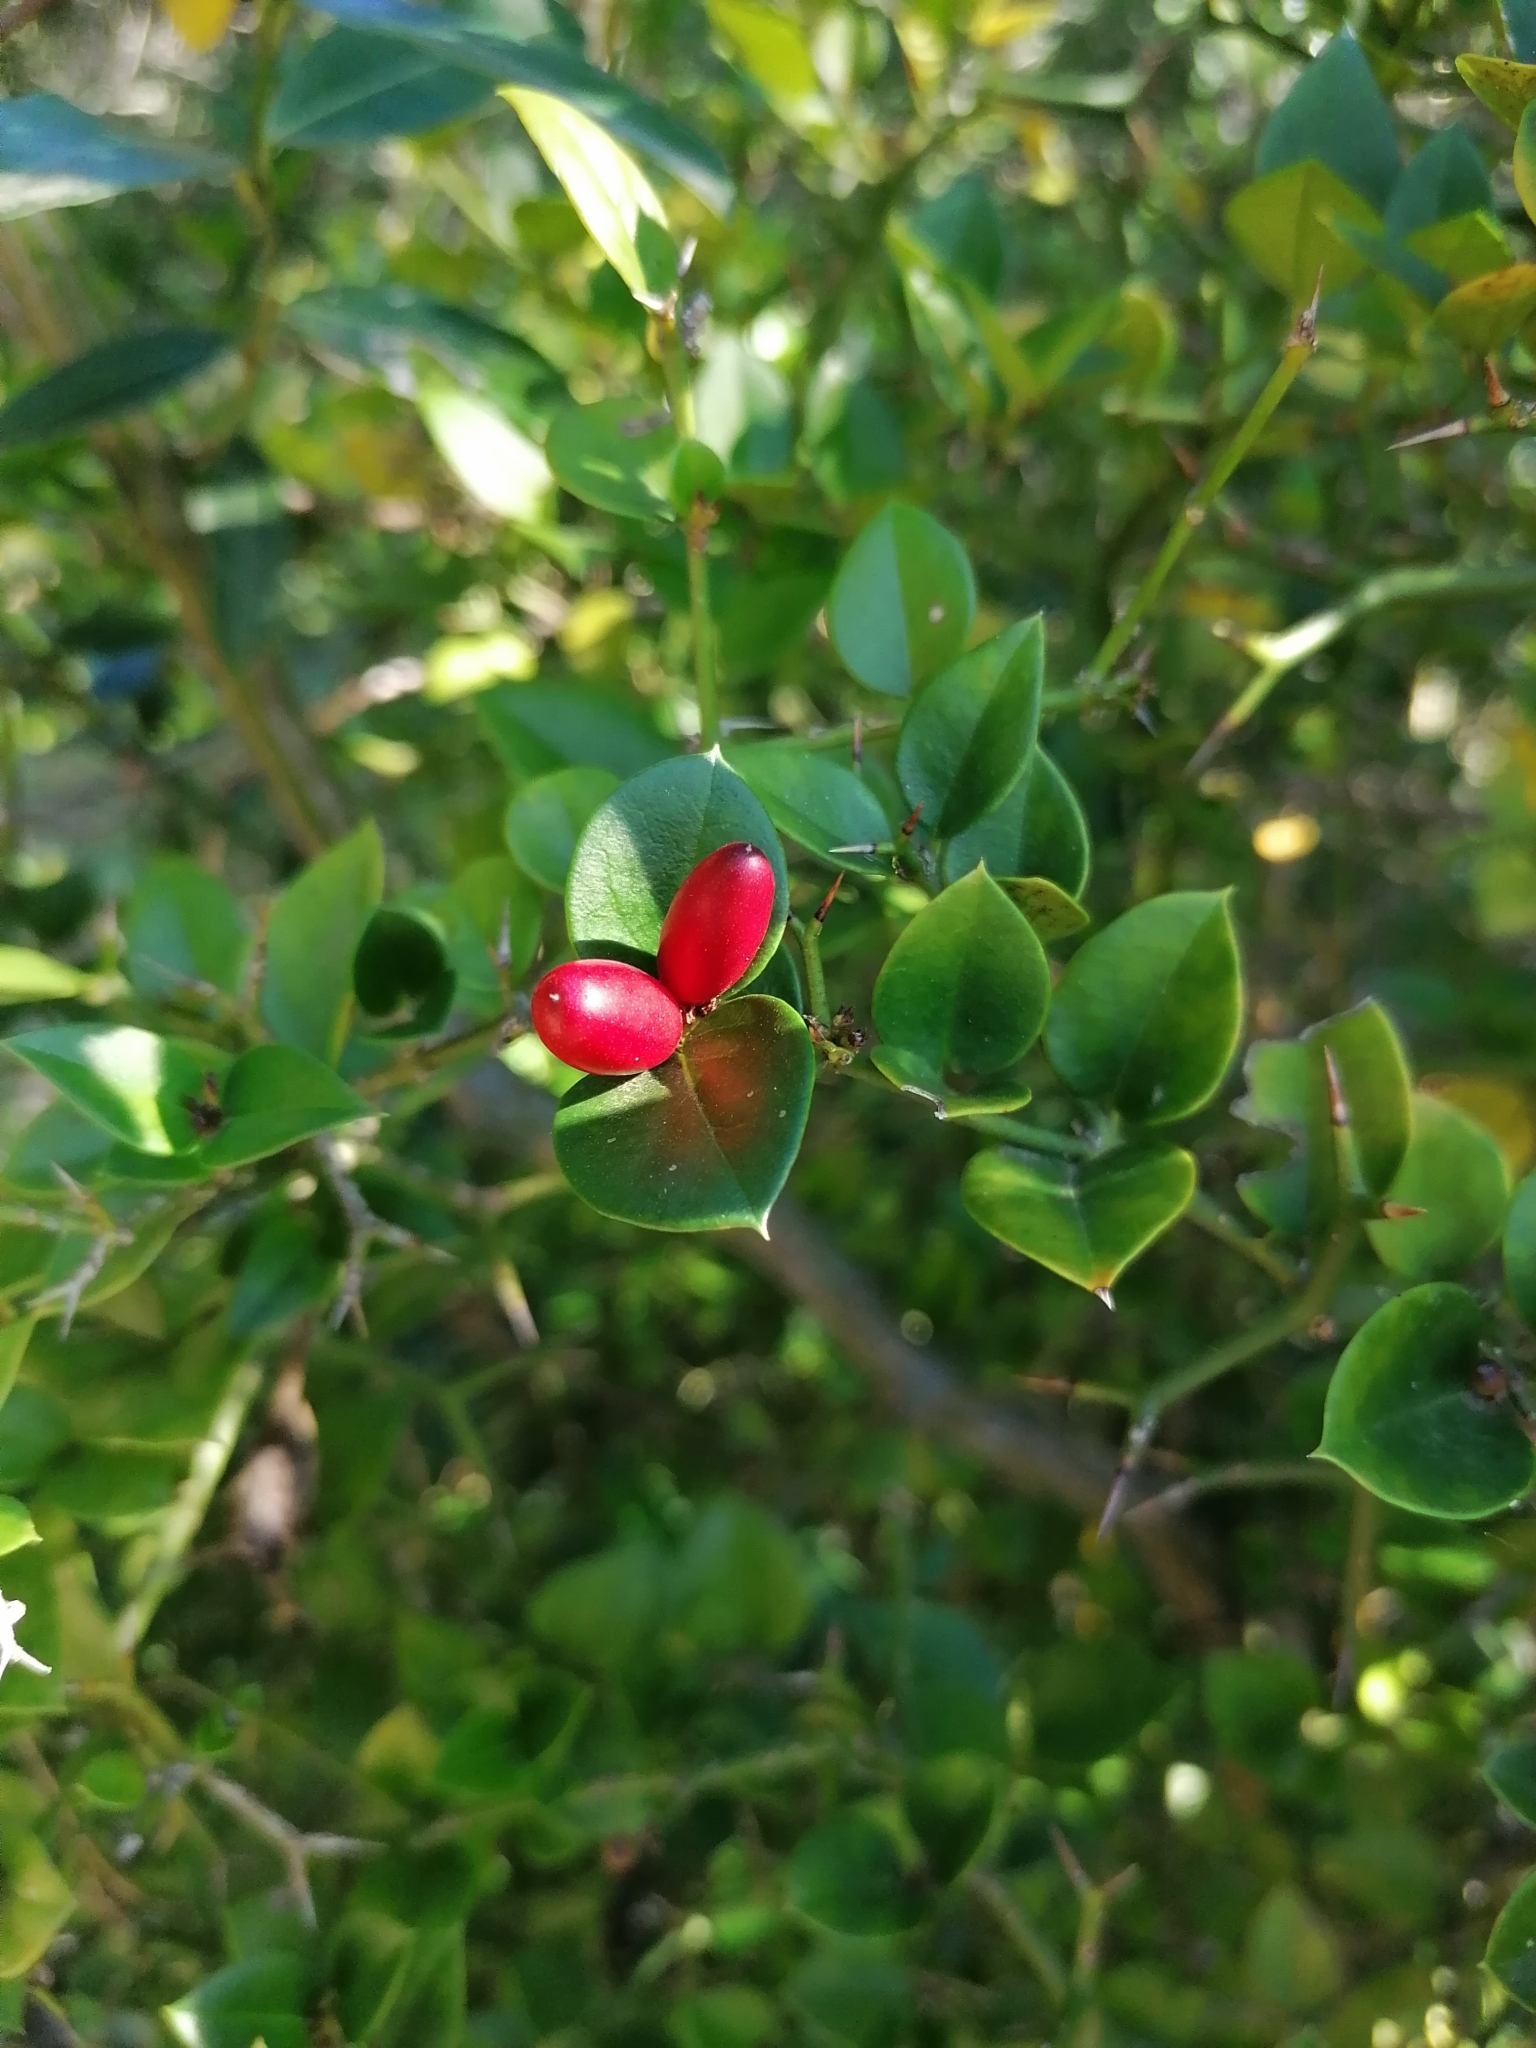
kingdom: Plantae
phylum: Tracheophyta
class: Magnoliopsida
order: Gentianales
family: Apocynaceae
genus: Carissa
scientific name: Carissa bispinosa
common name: Forest num-num
